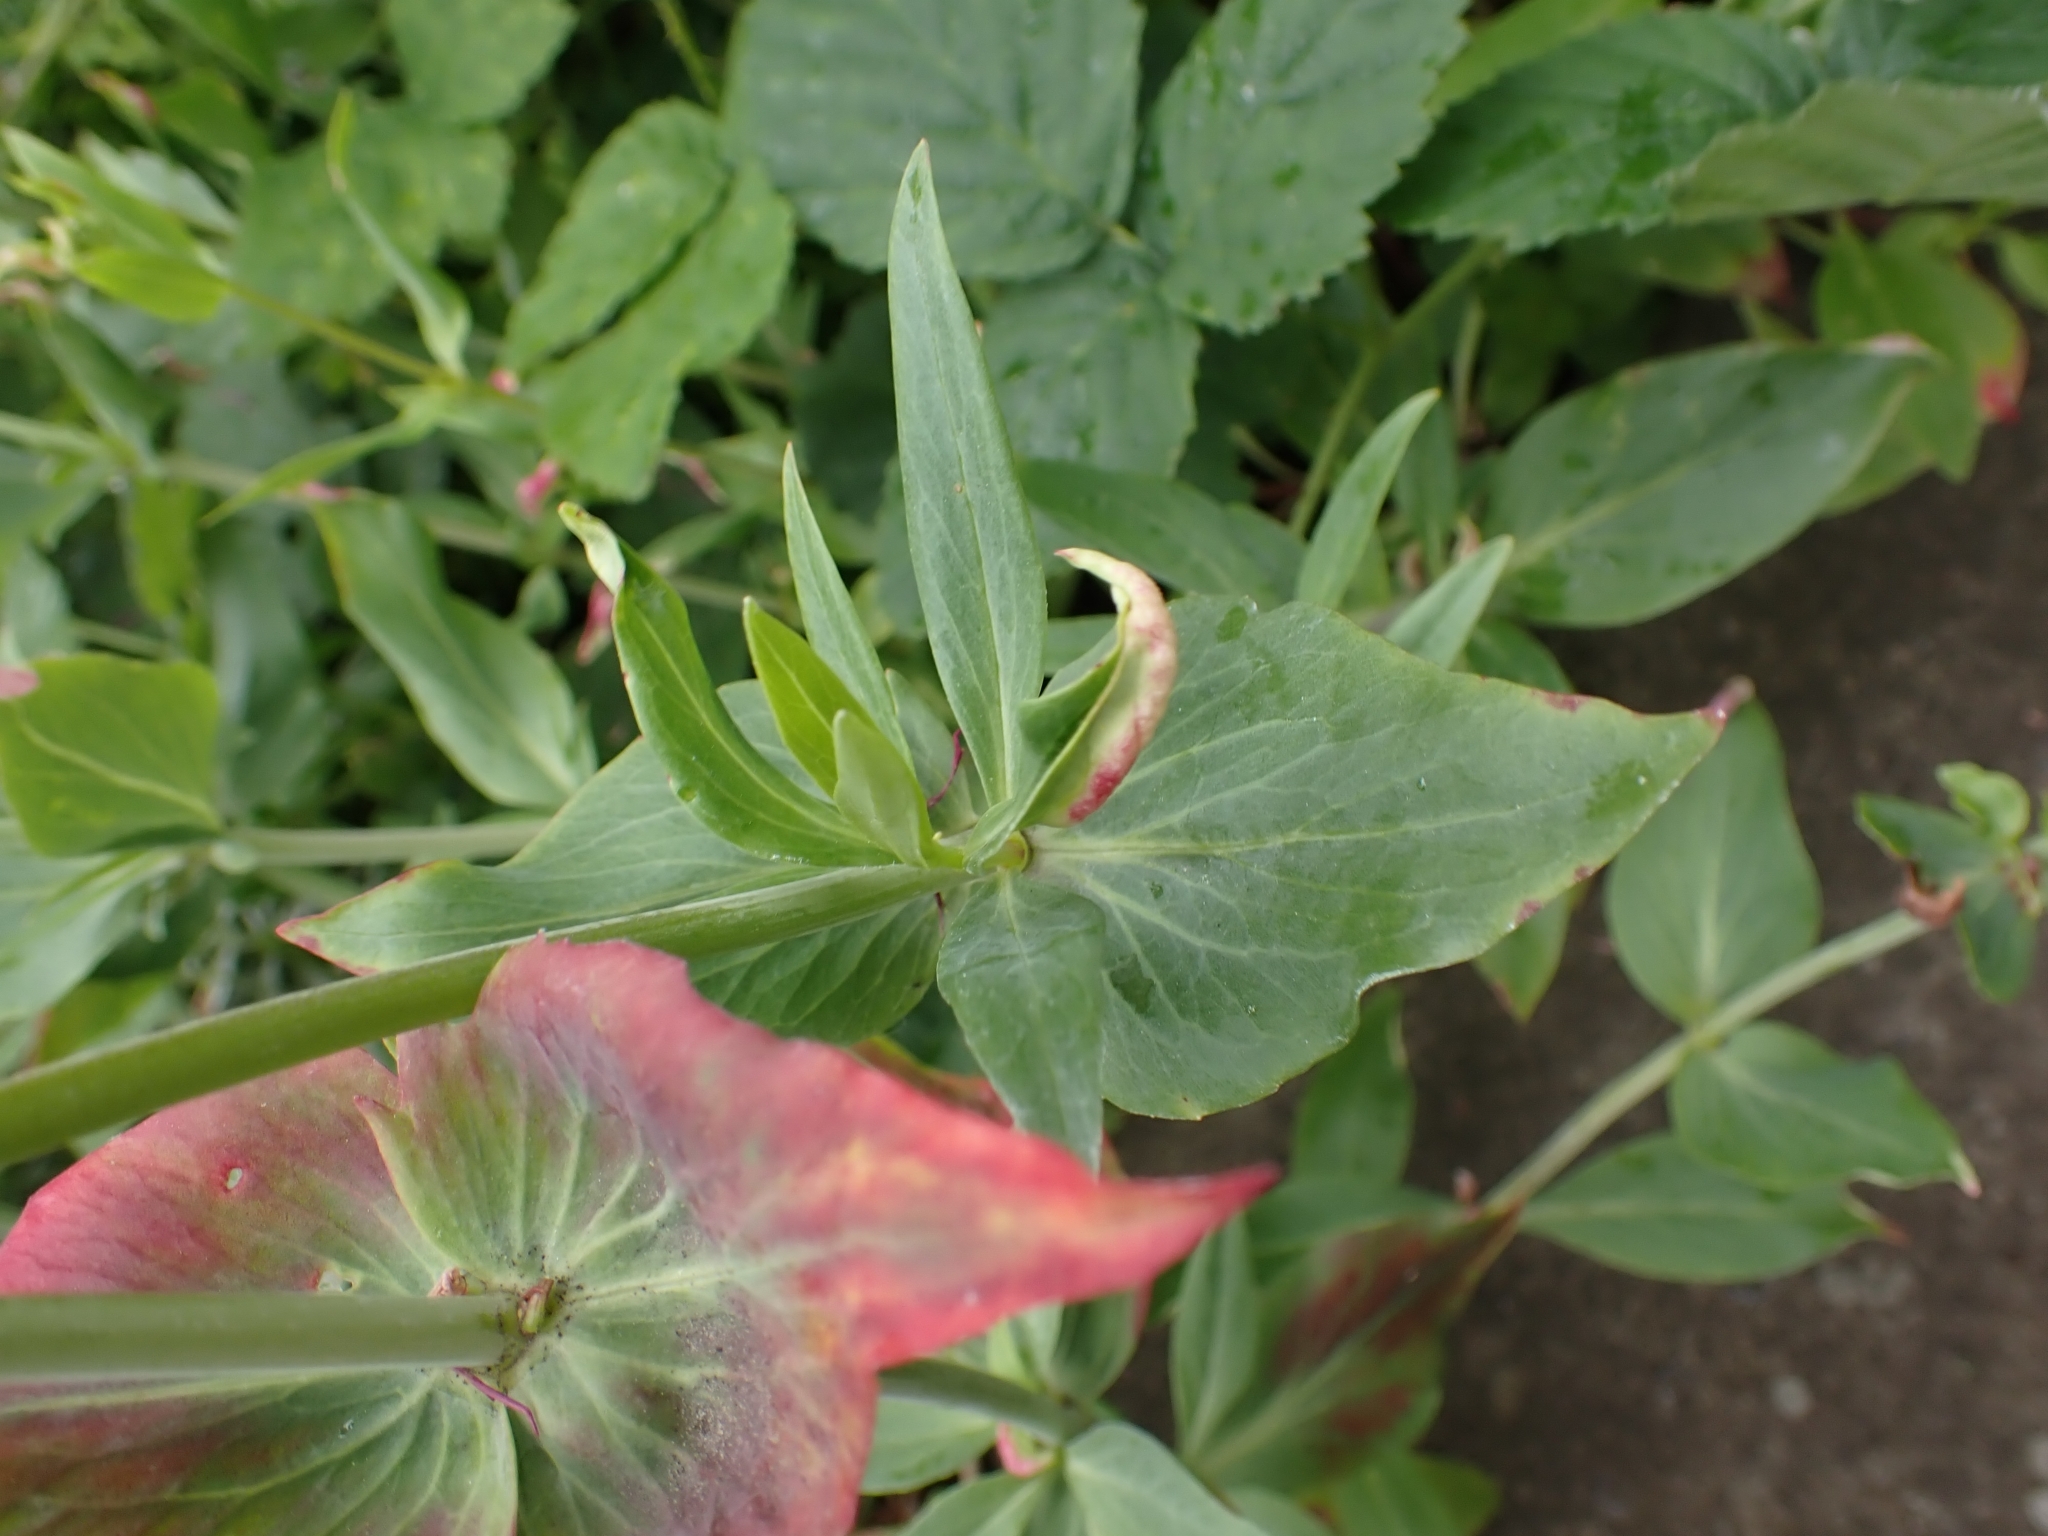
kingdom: Animalia
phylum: Arthropoda
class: Insecta
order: Hemiptera
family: Triozidae
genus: Trioza
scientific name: Trioza centranthi
